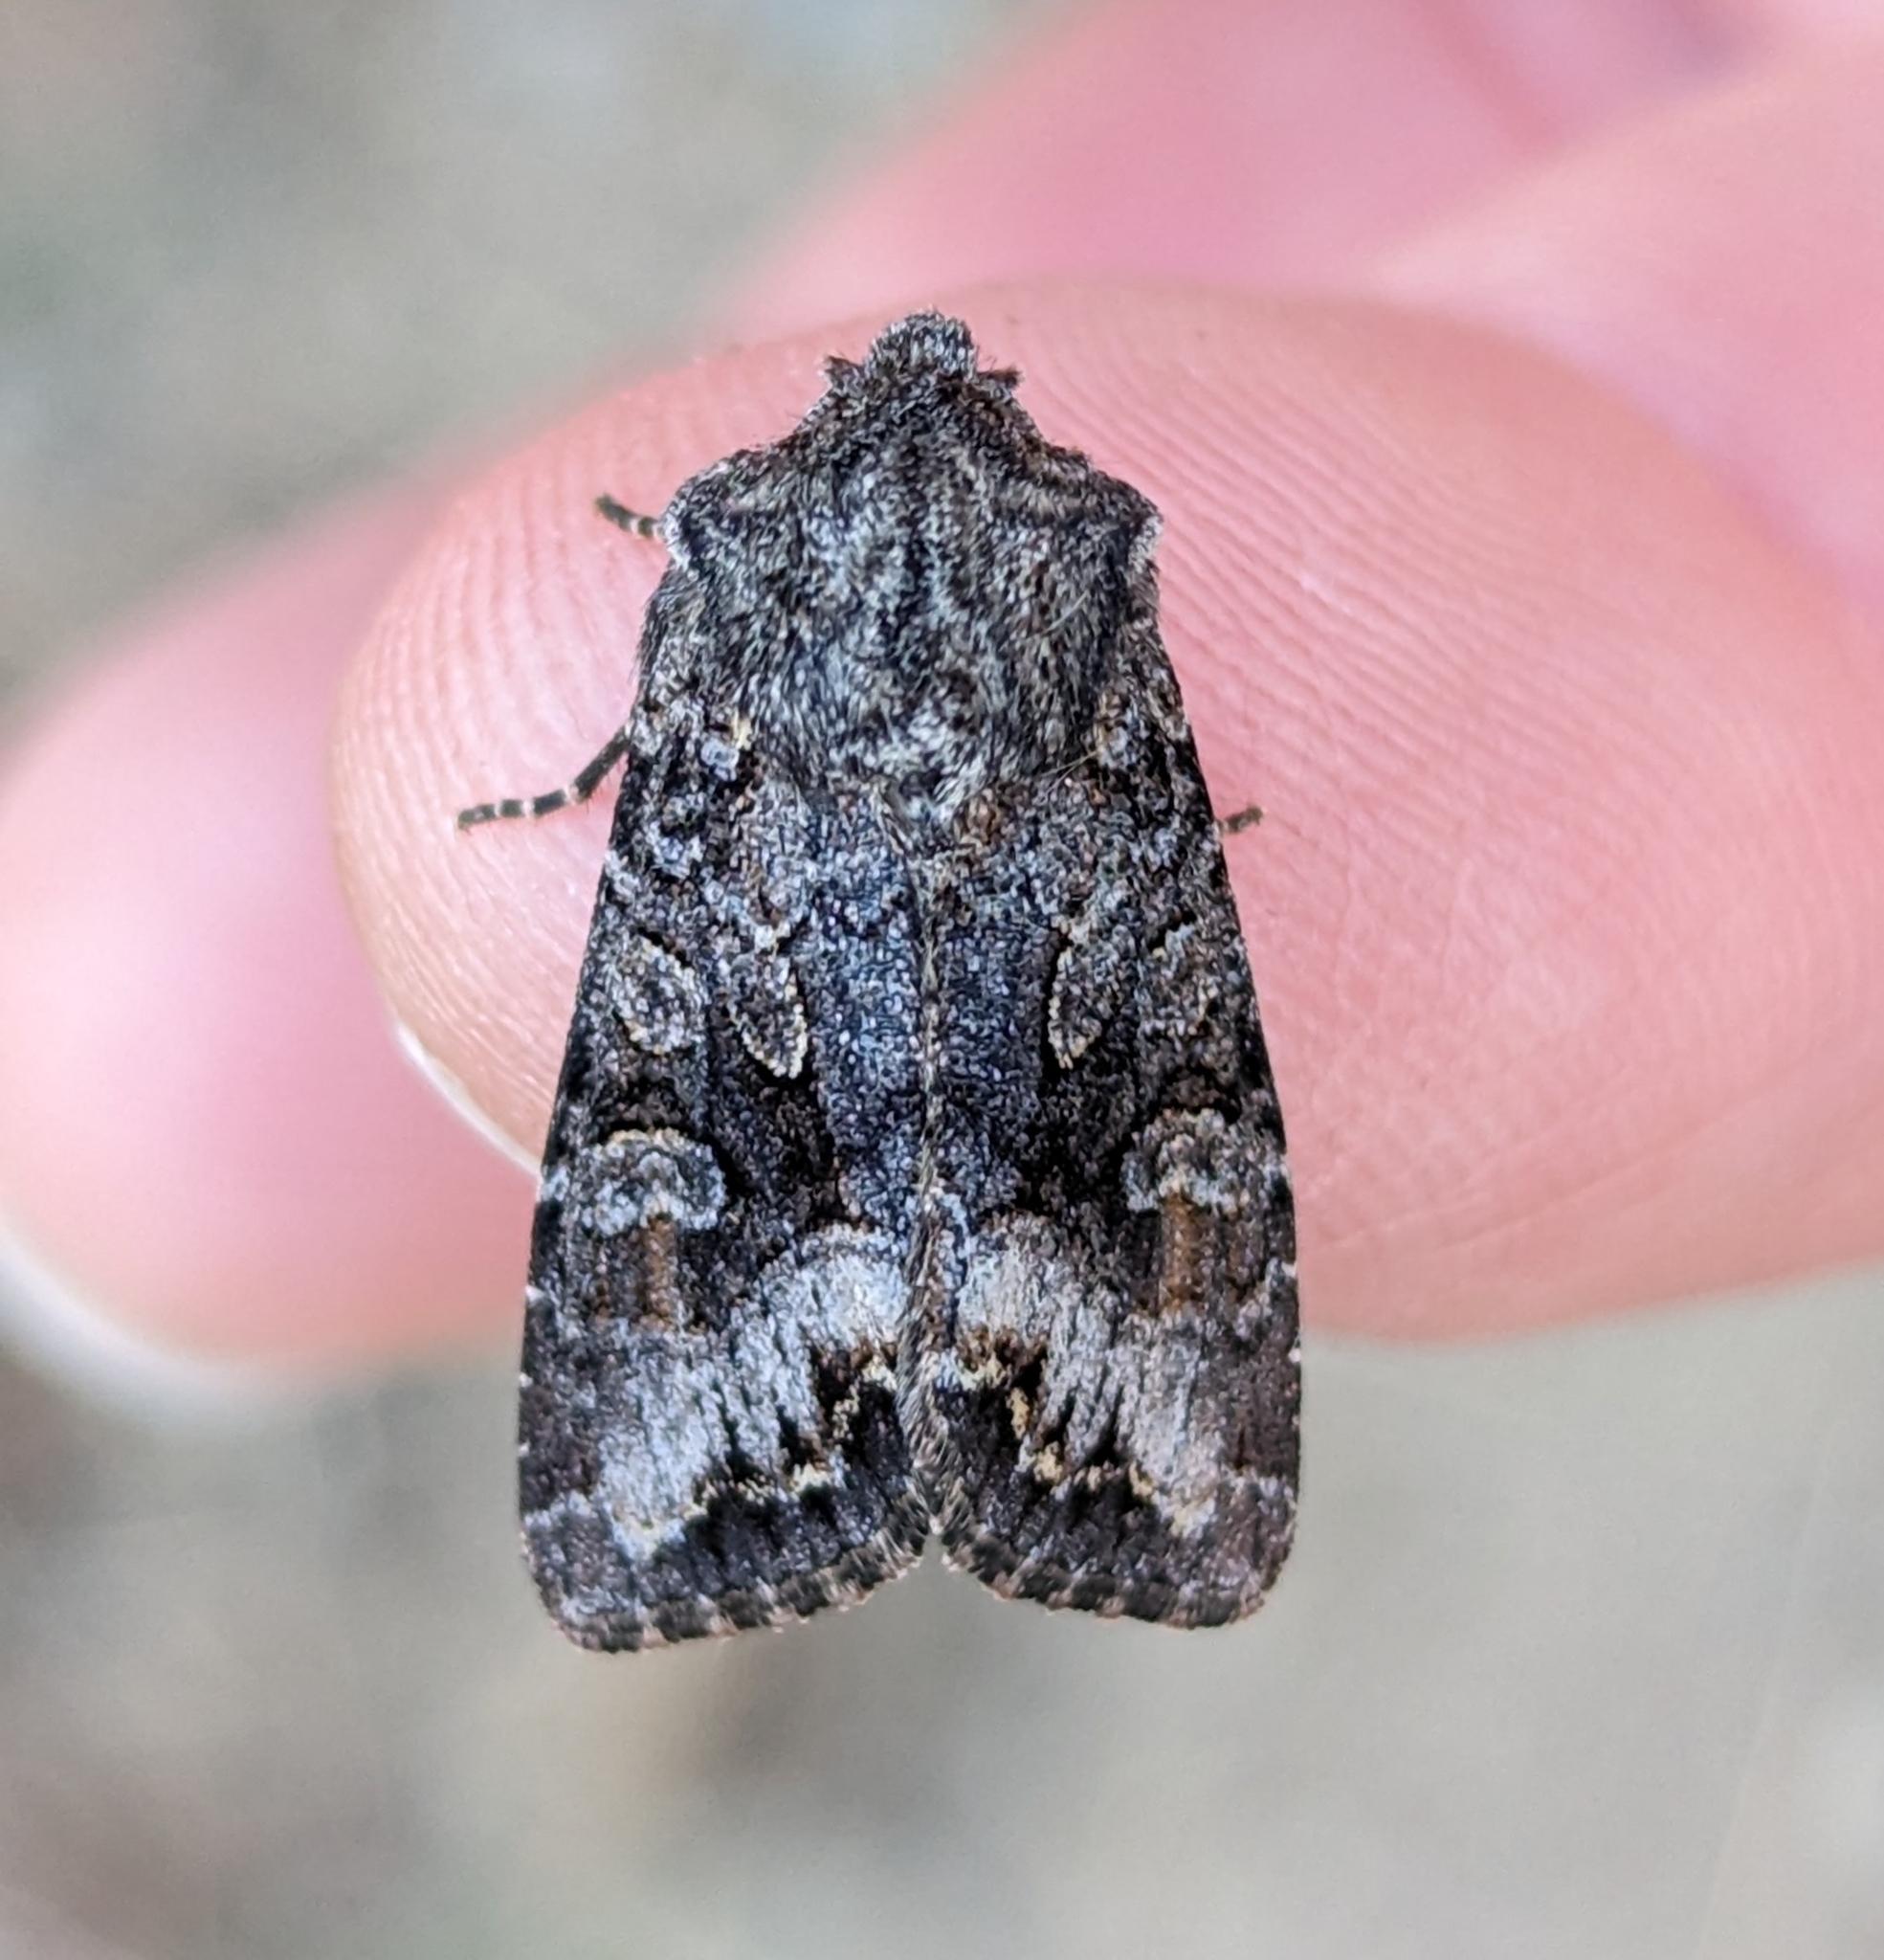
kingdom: Animalia
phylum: Arthropoda
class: Insecta
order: Lepidoptera
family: Noctuidae
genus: Papestra
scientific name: Papestra quadrata
